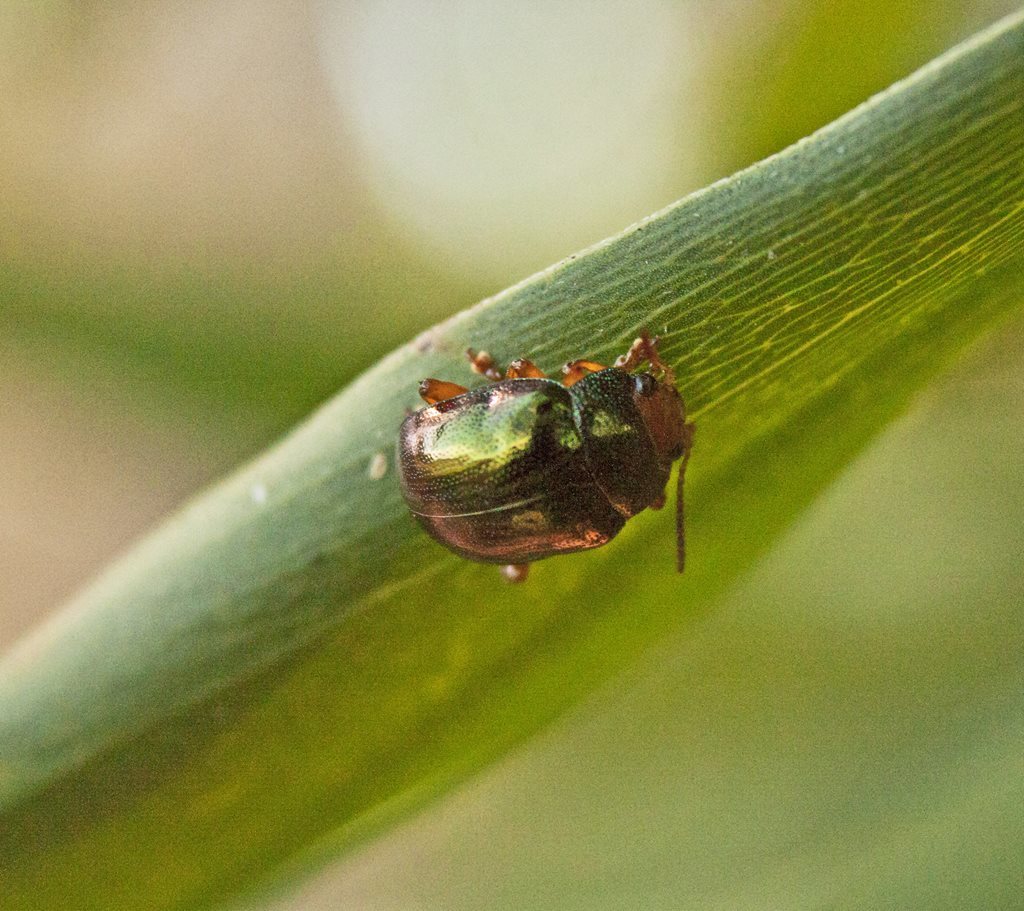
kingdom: Animalia
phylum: Arthropoda
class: Insecta
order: Coleoptera
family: Chrysomelidae
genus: Calomela
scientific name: Calomela
